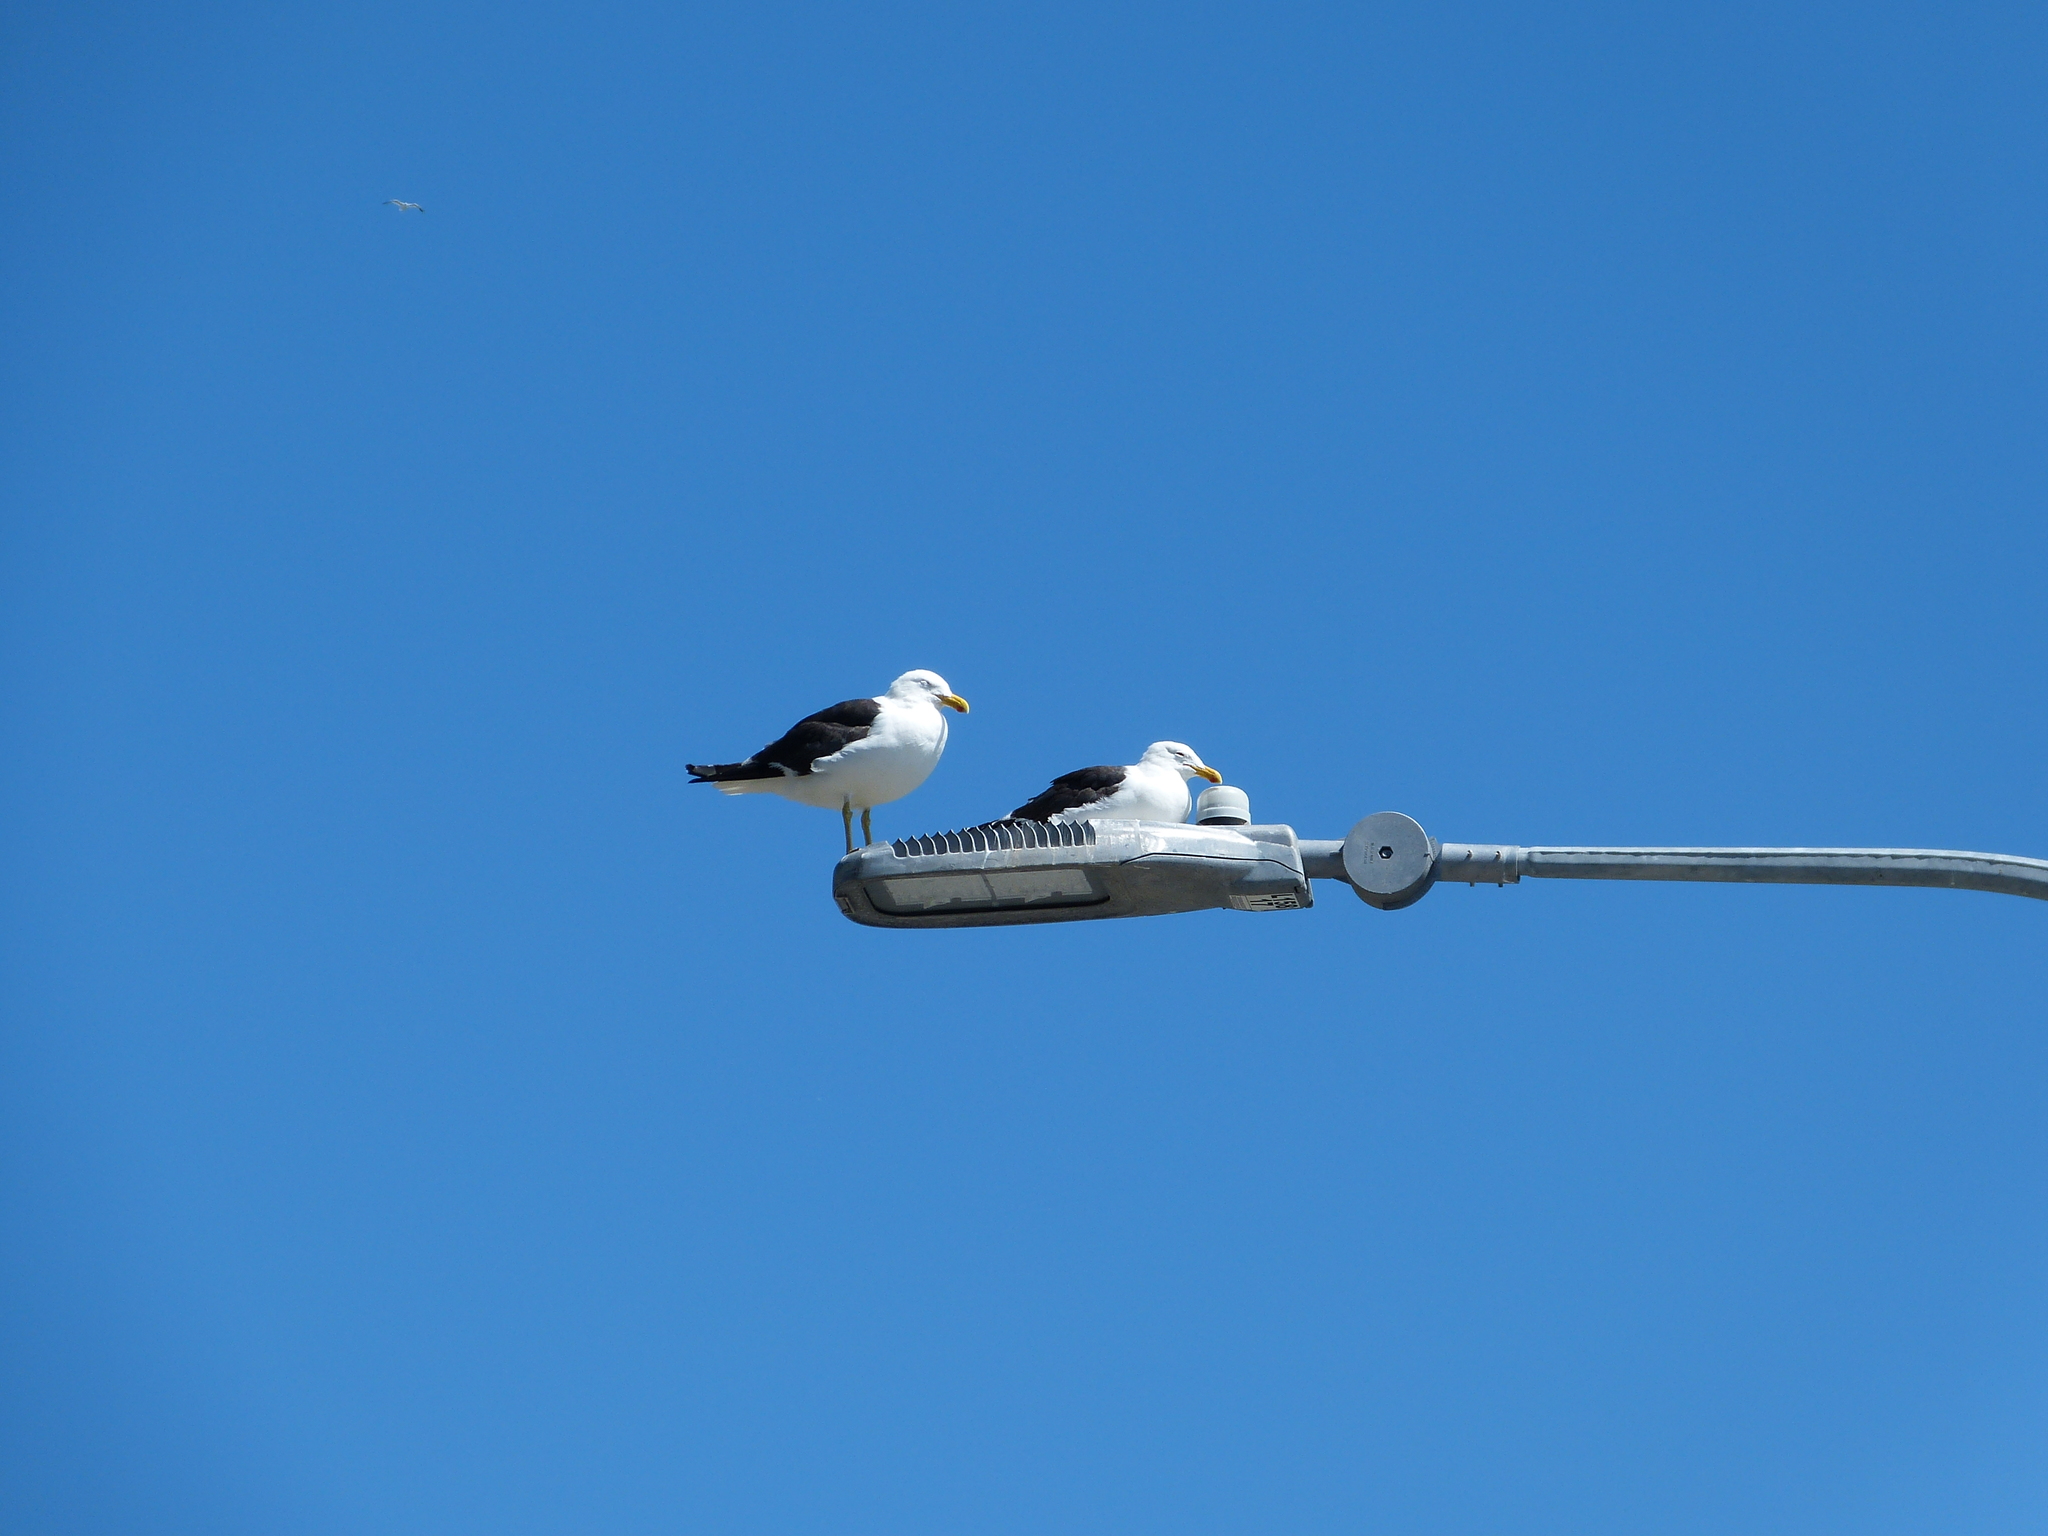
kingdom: Animalia
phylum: Chordata
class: Aves
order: Charadriiformes
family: Laridae
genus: Larus
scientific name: Larus dominicanus
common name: Kelp gull
